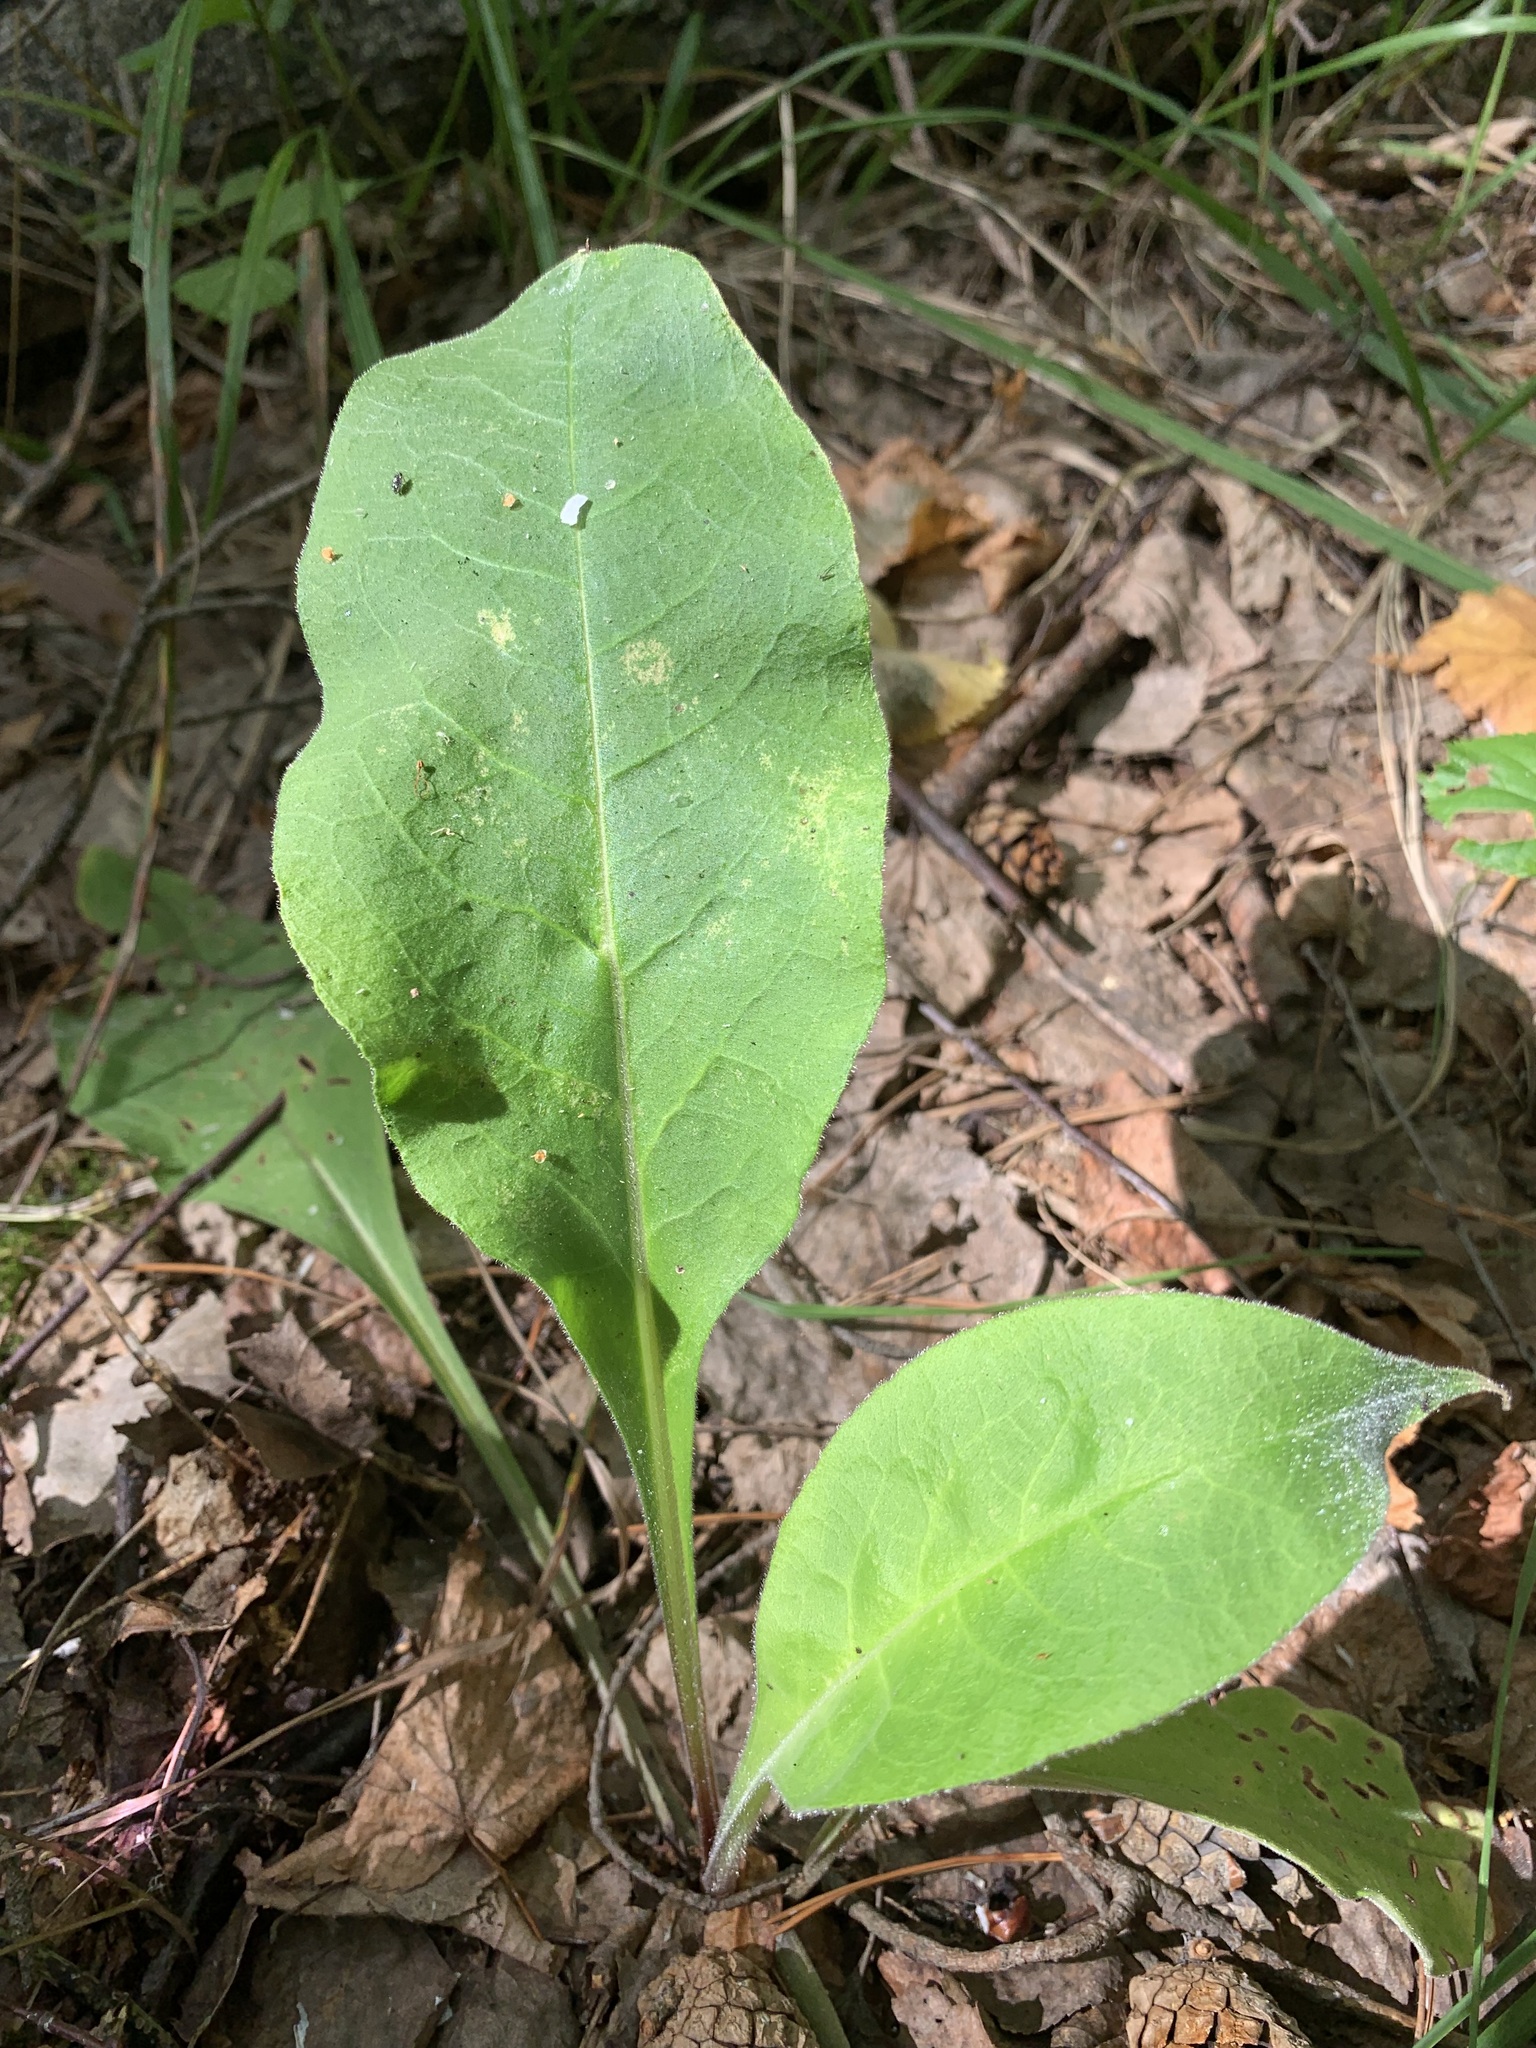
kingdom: Plantae
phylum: Tracheophyta
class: Magnoliopsida
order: Boraginales
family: Boraginaceae
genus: Pulmonaria
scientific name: Pulmonaria mollis
